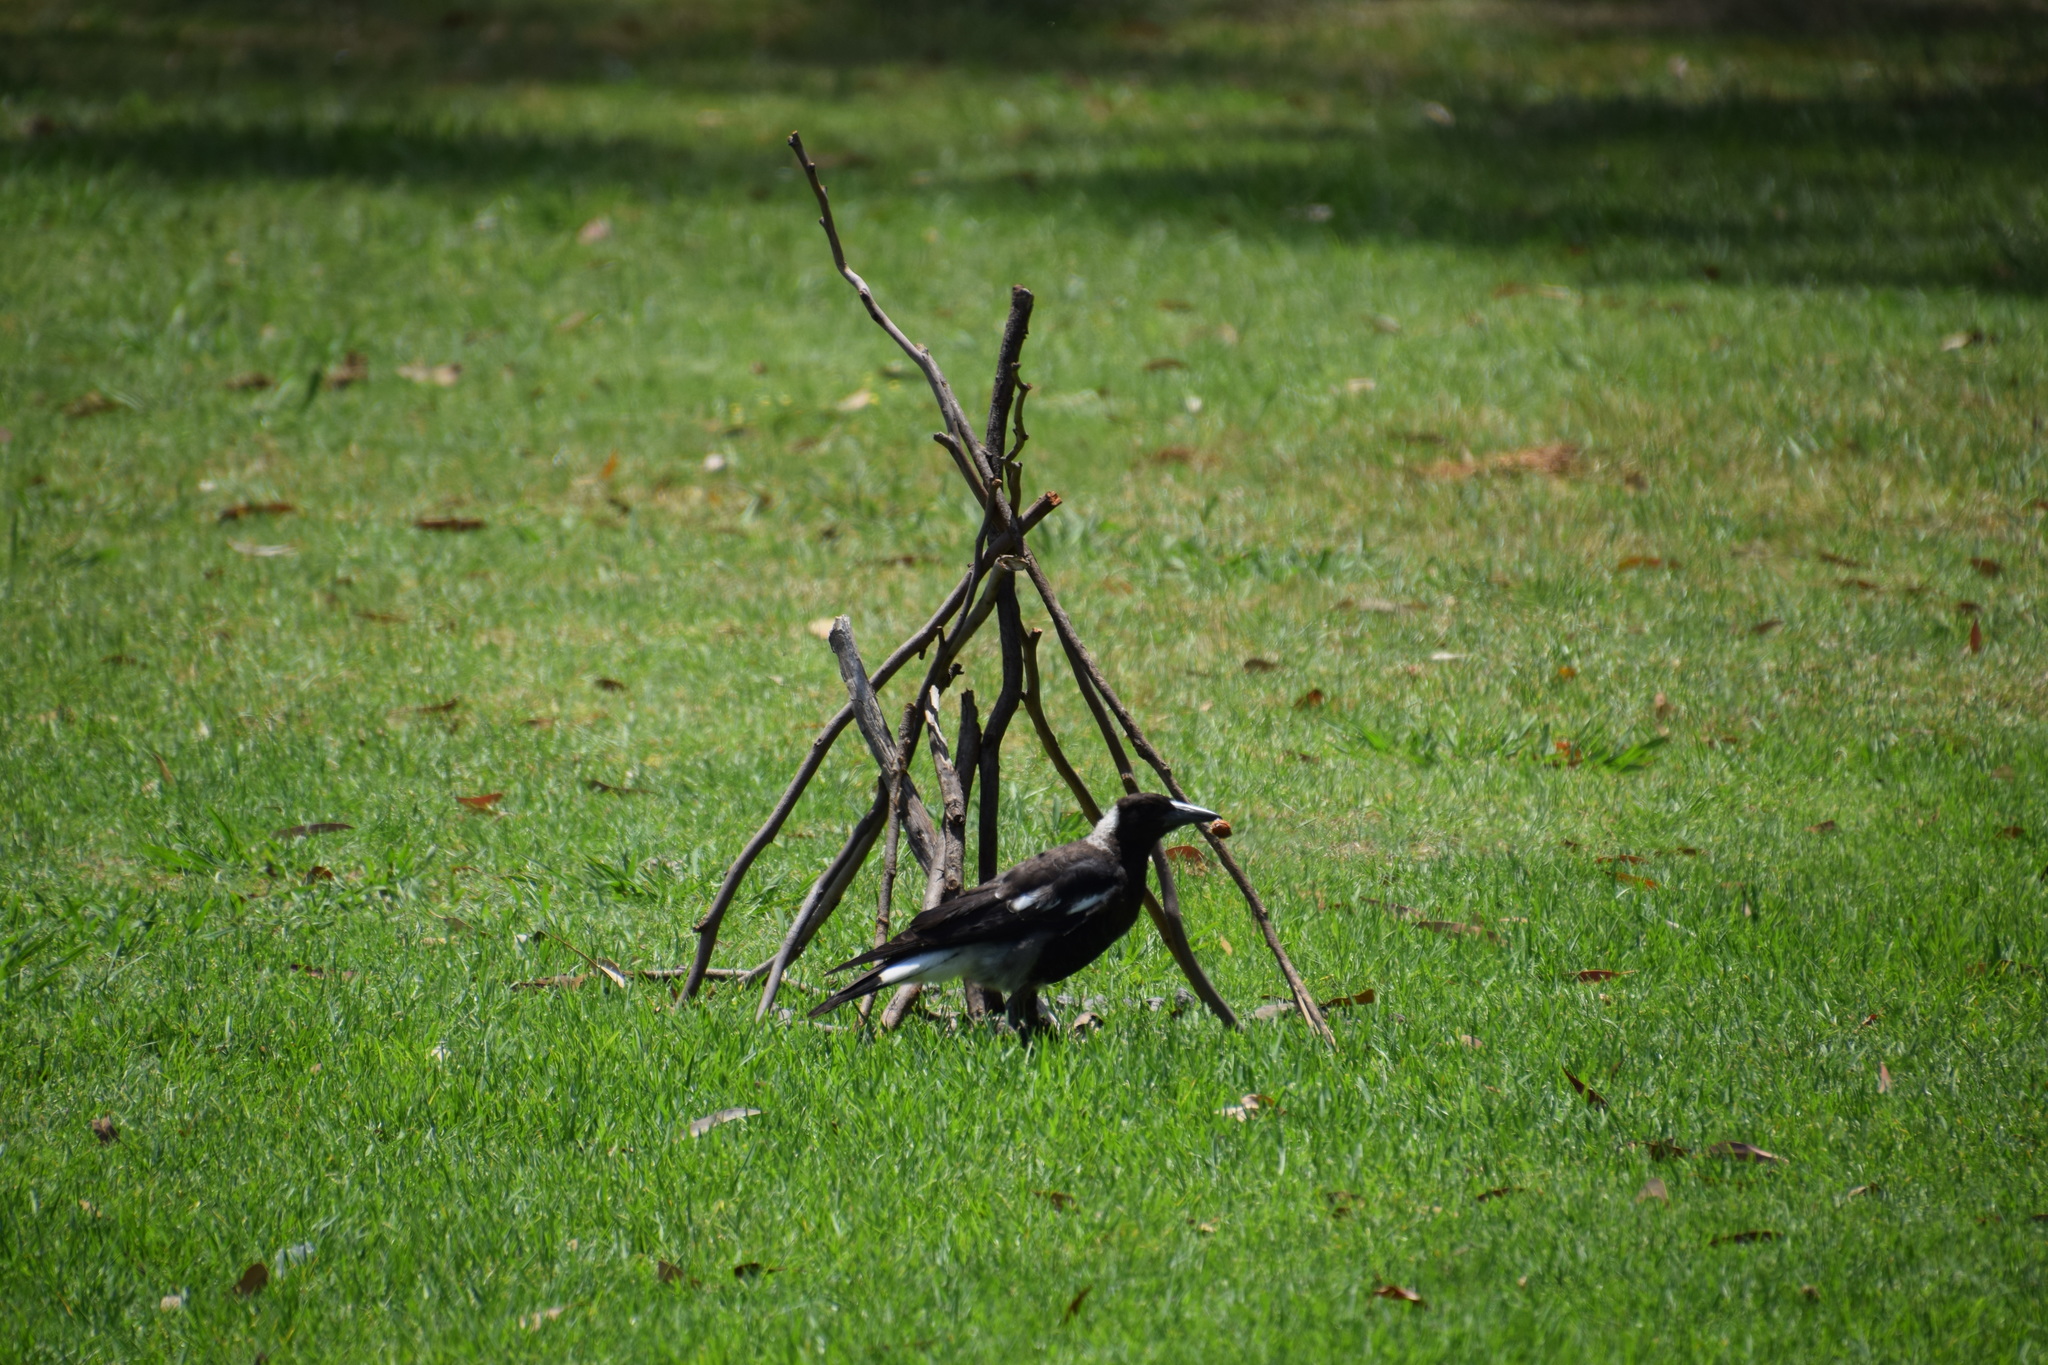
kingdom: Animalia
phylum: Chordata
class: Aves
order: Passeriformes
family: Cracticidae
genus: Gymnorhina
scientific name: Gymnorhina tibicen
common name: Australian magpie
